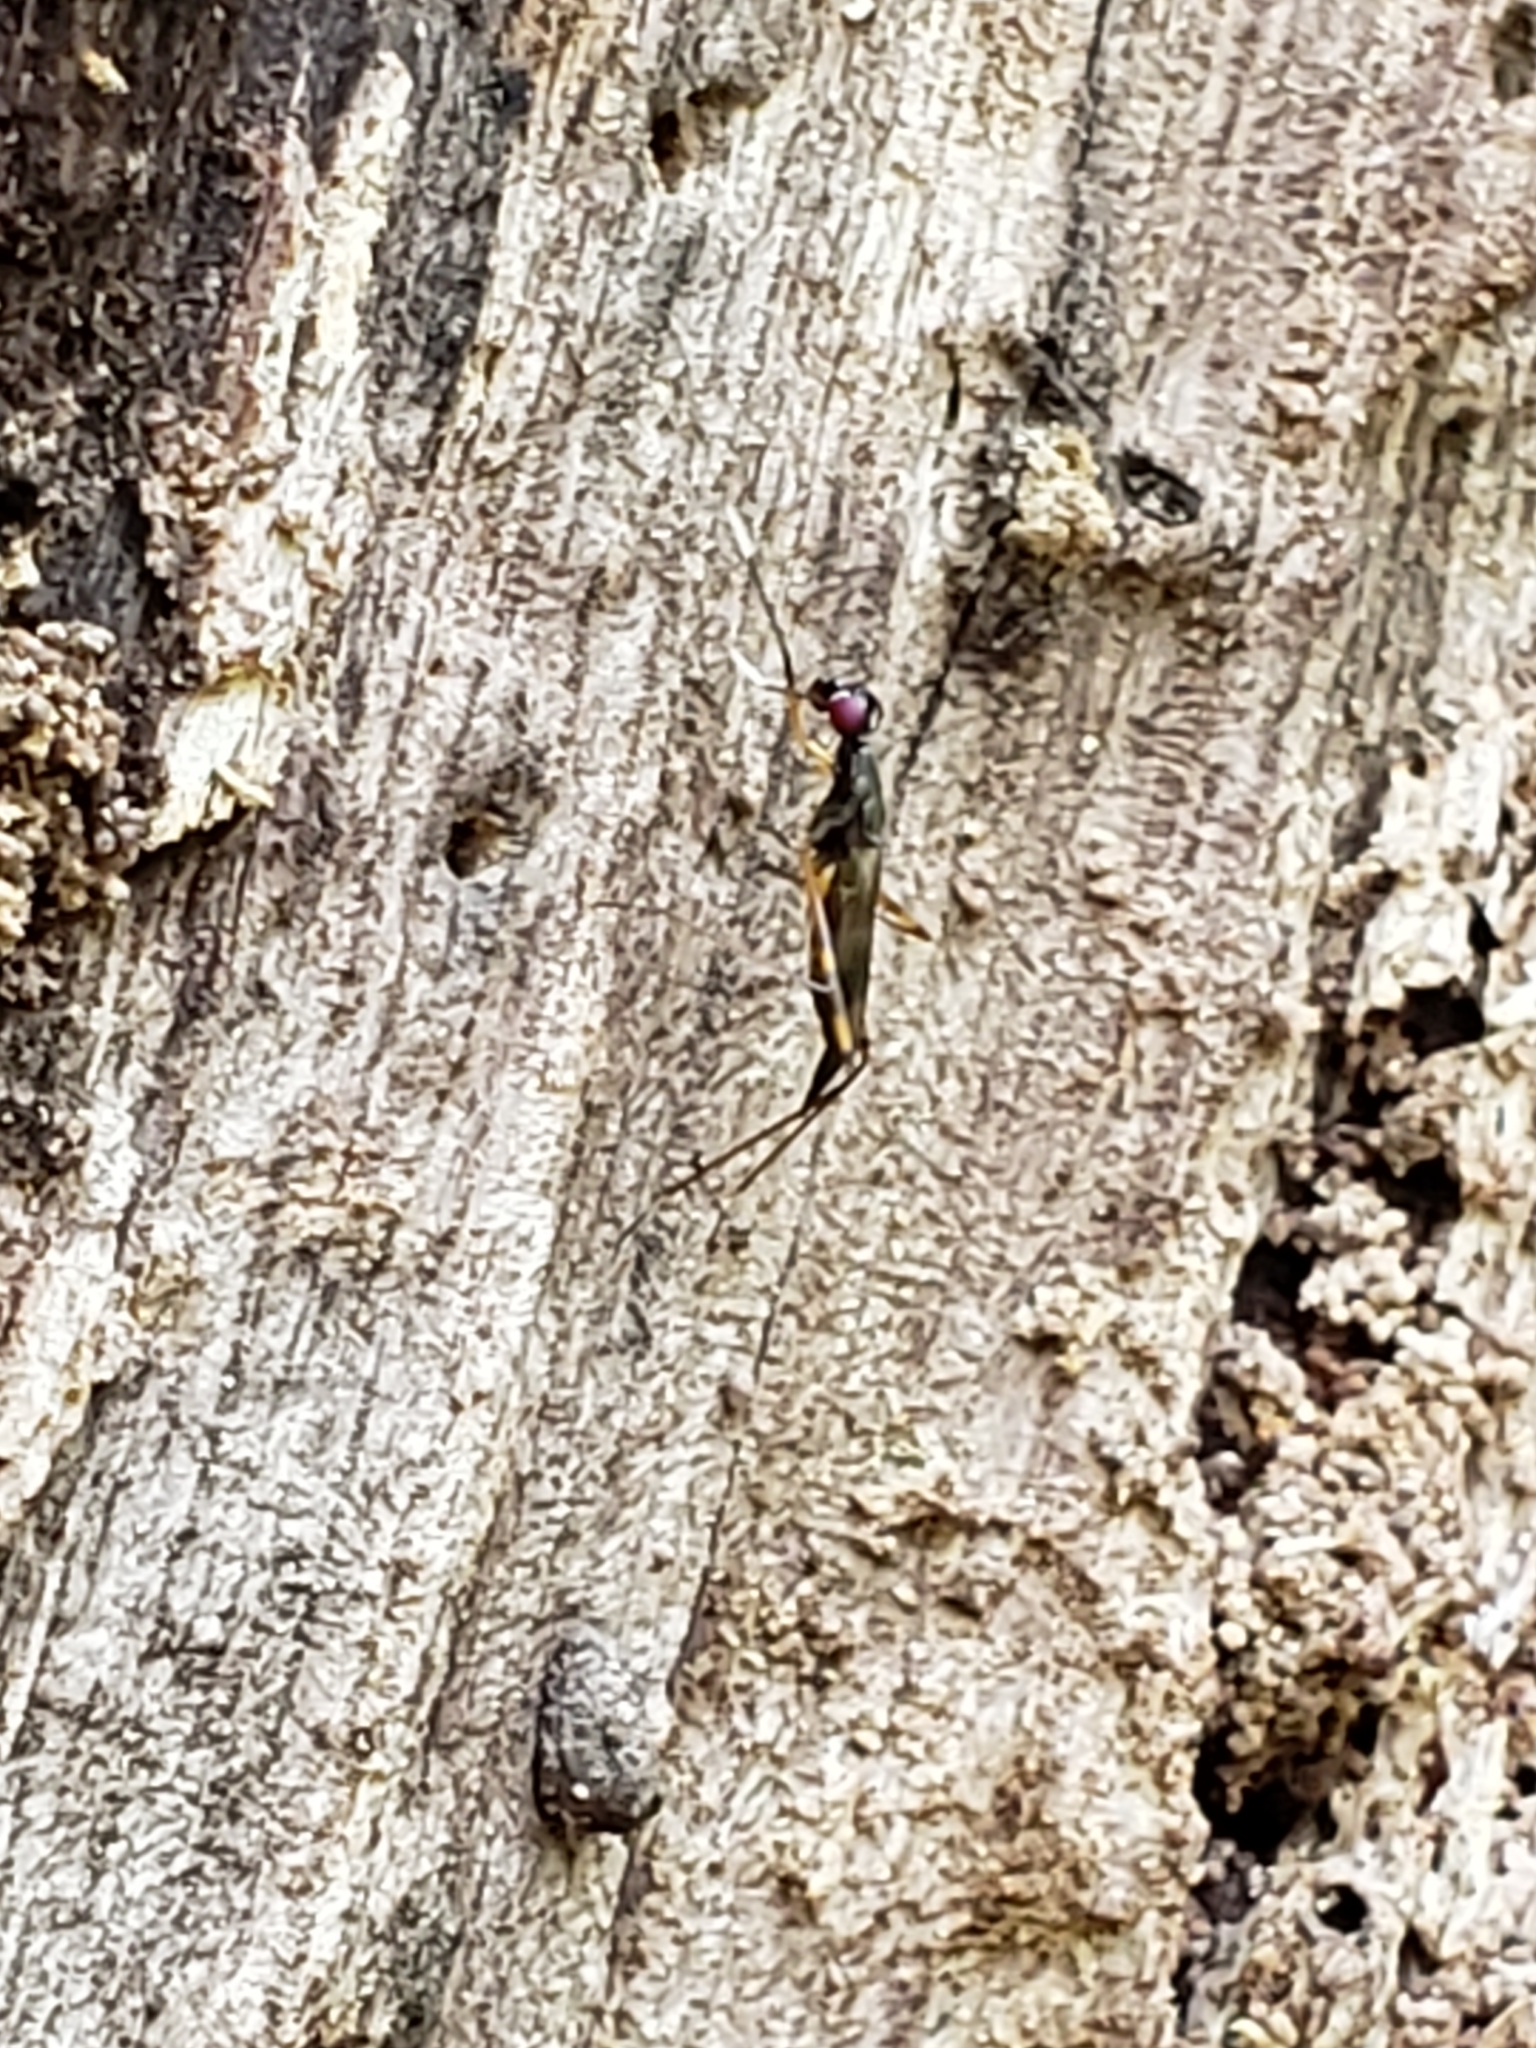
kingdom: Animalia
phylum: Arthropoda
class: Insecta
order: Diptera
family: Micropezidae
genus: Rainieria
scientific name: Rainieria antennaepes
